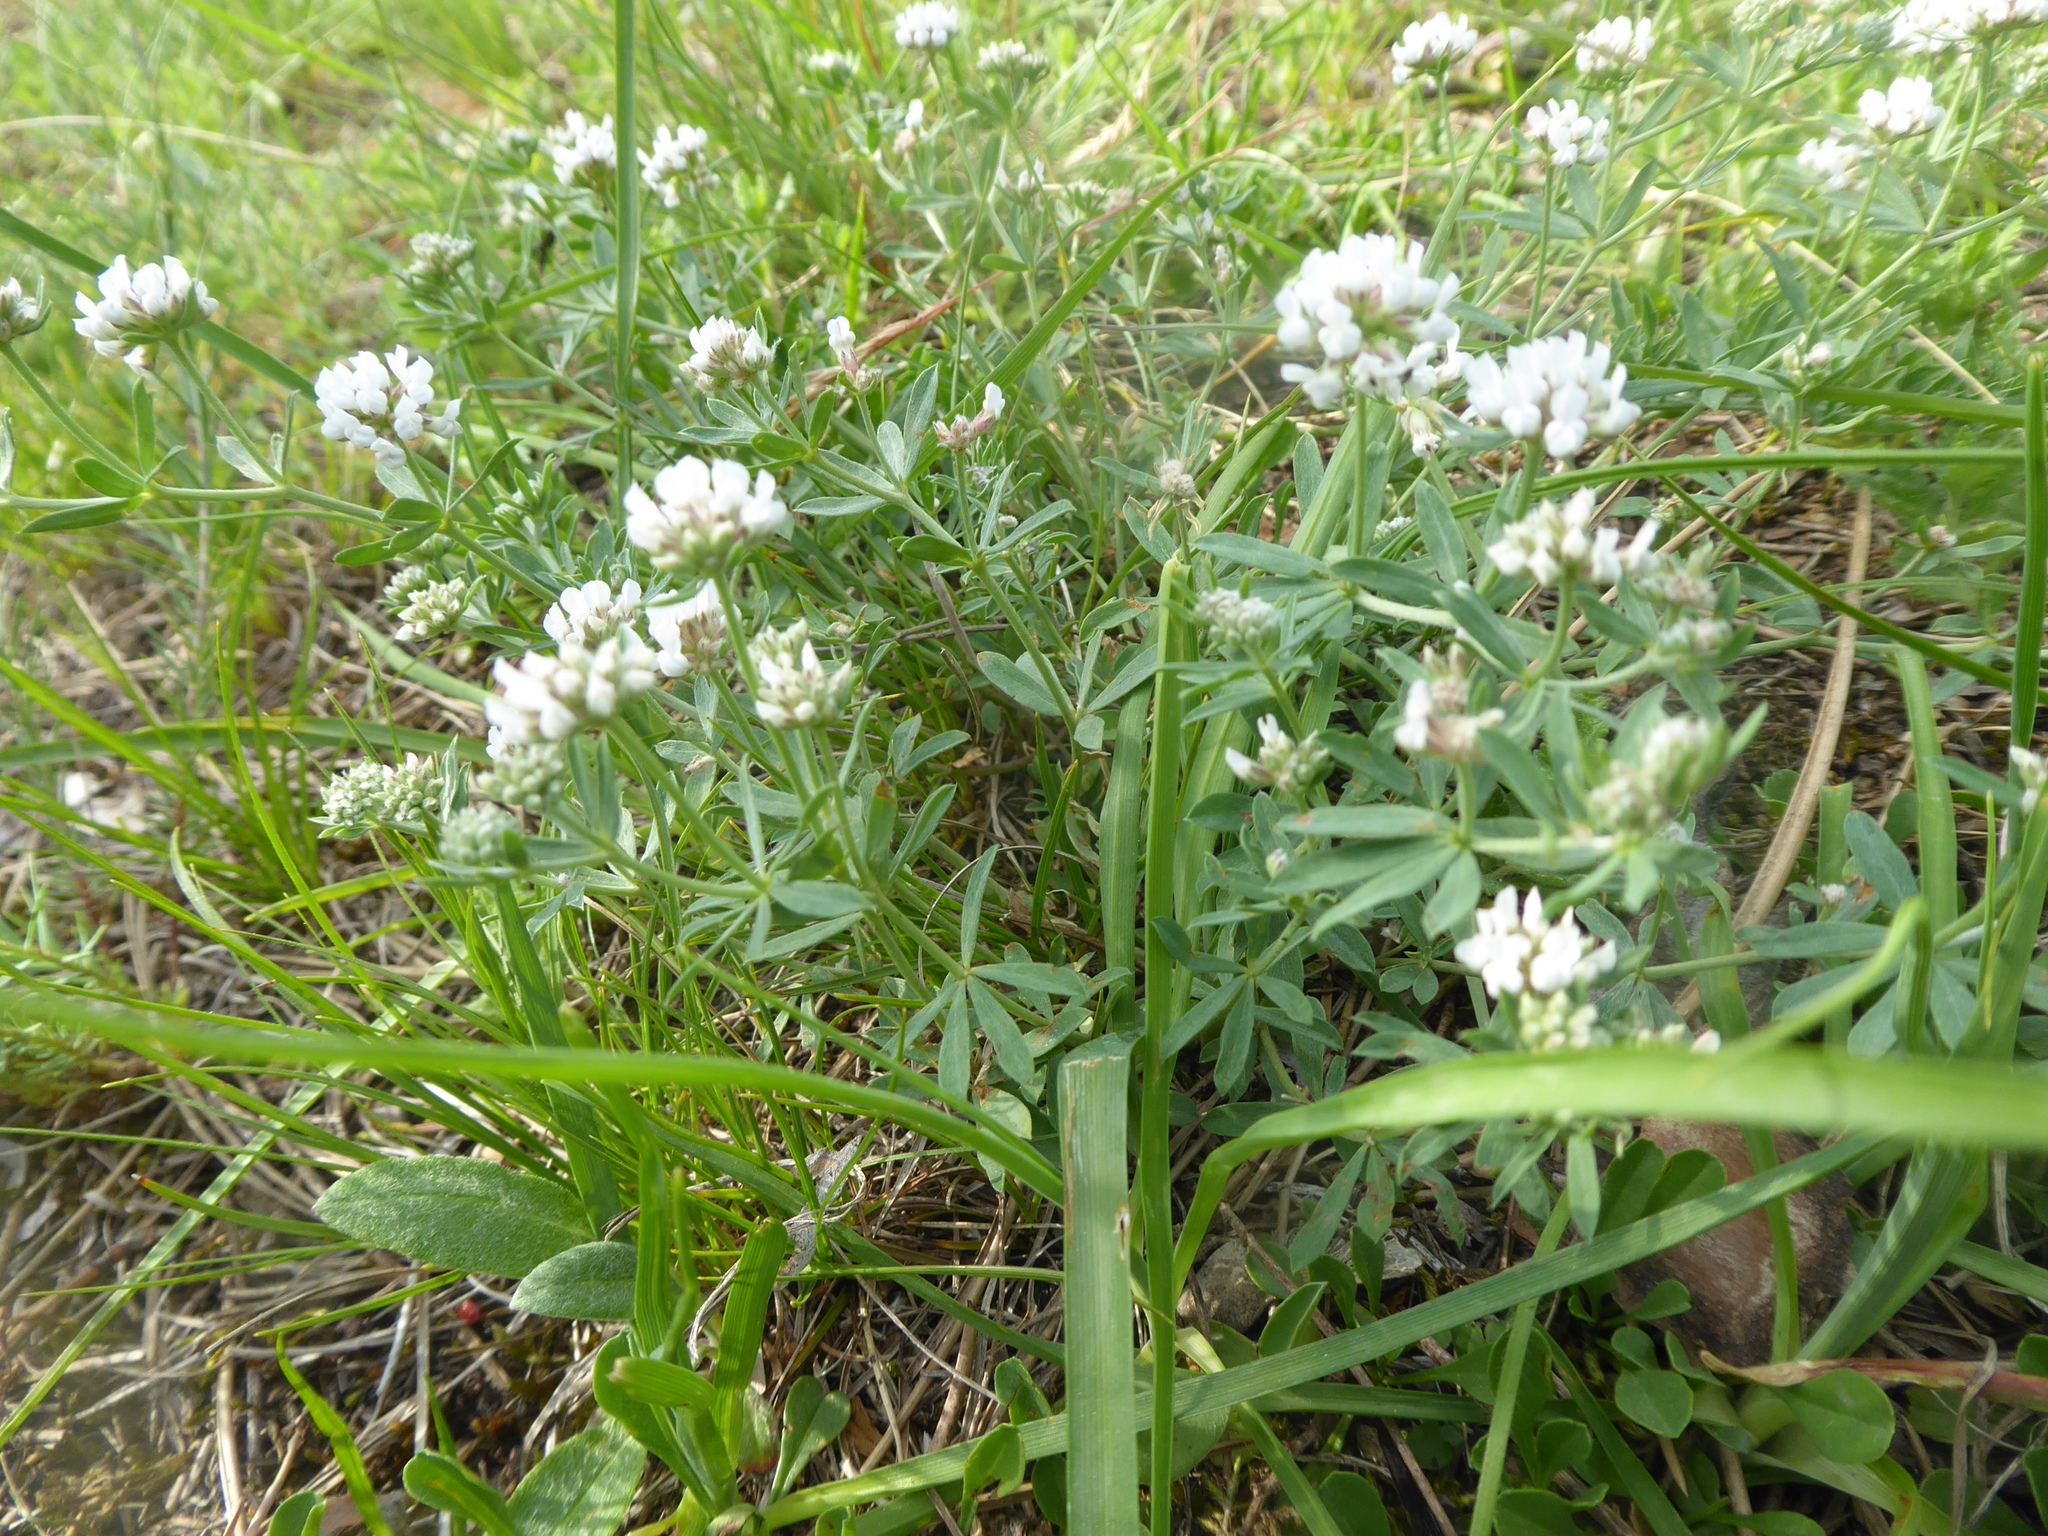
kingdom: Plantae
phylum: Tracheophyta
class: Magnoliopsida
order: Fabales
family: Fabaceae
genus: Lotus
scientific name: Lotus germanicus
